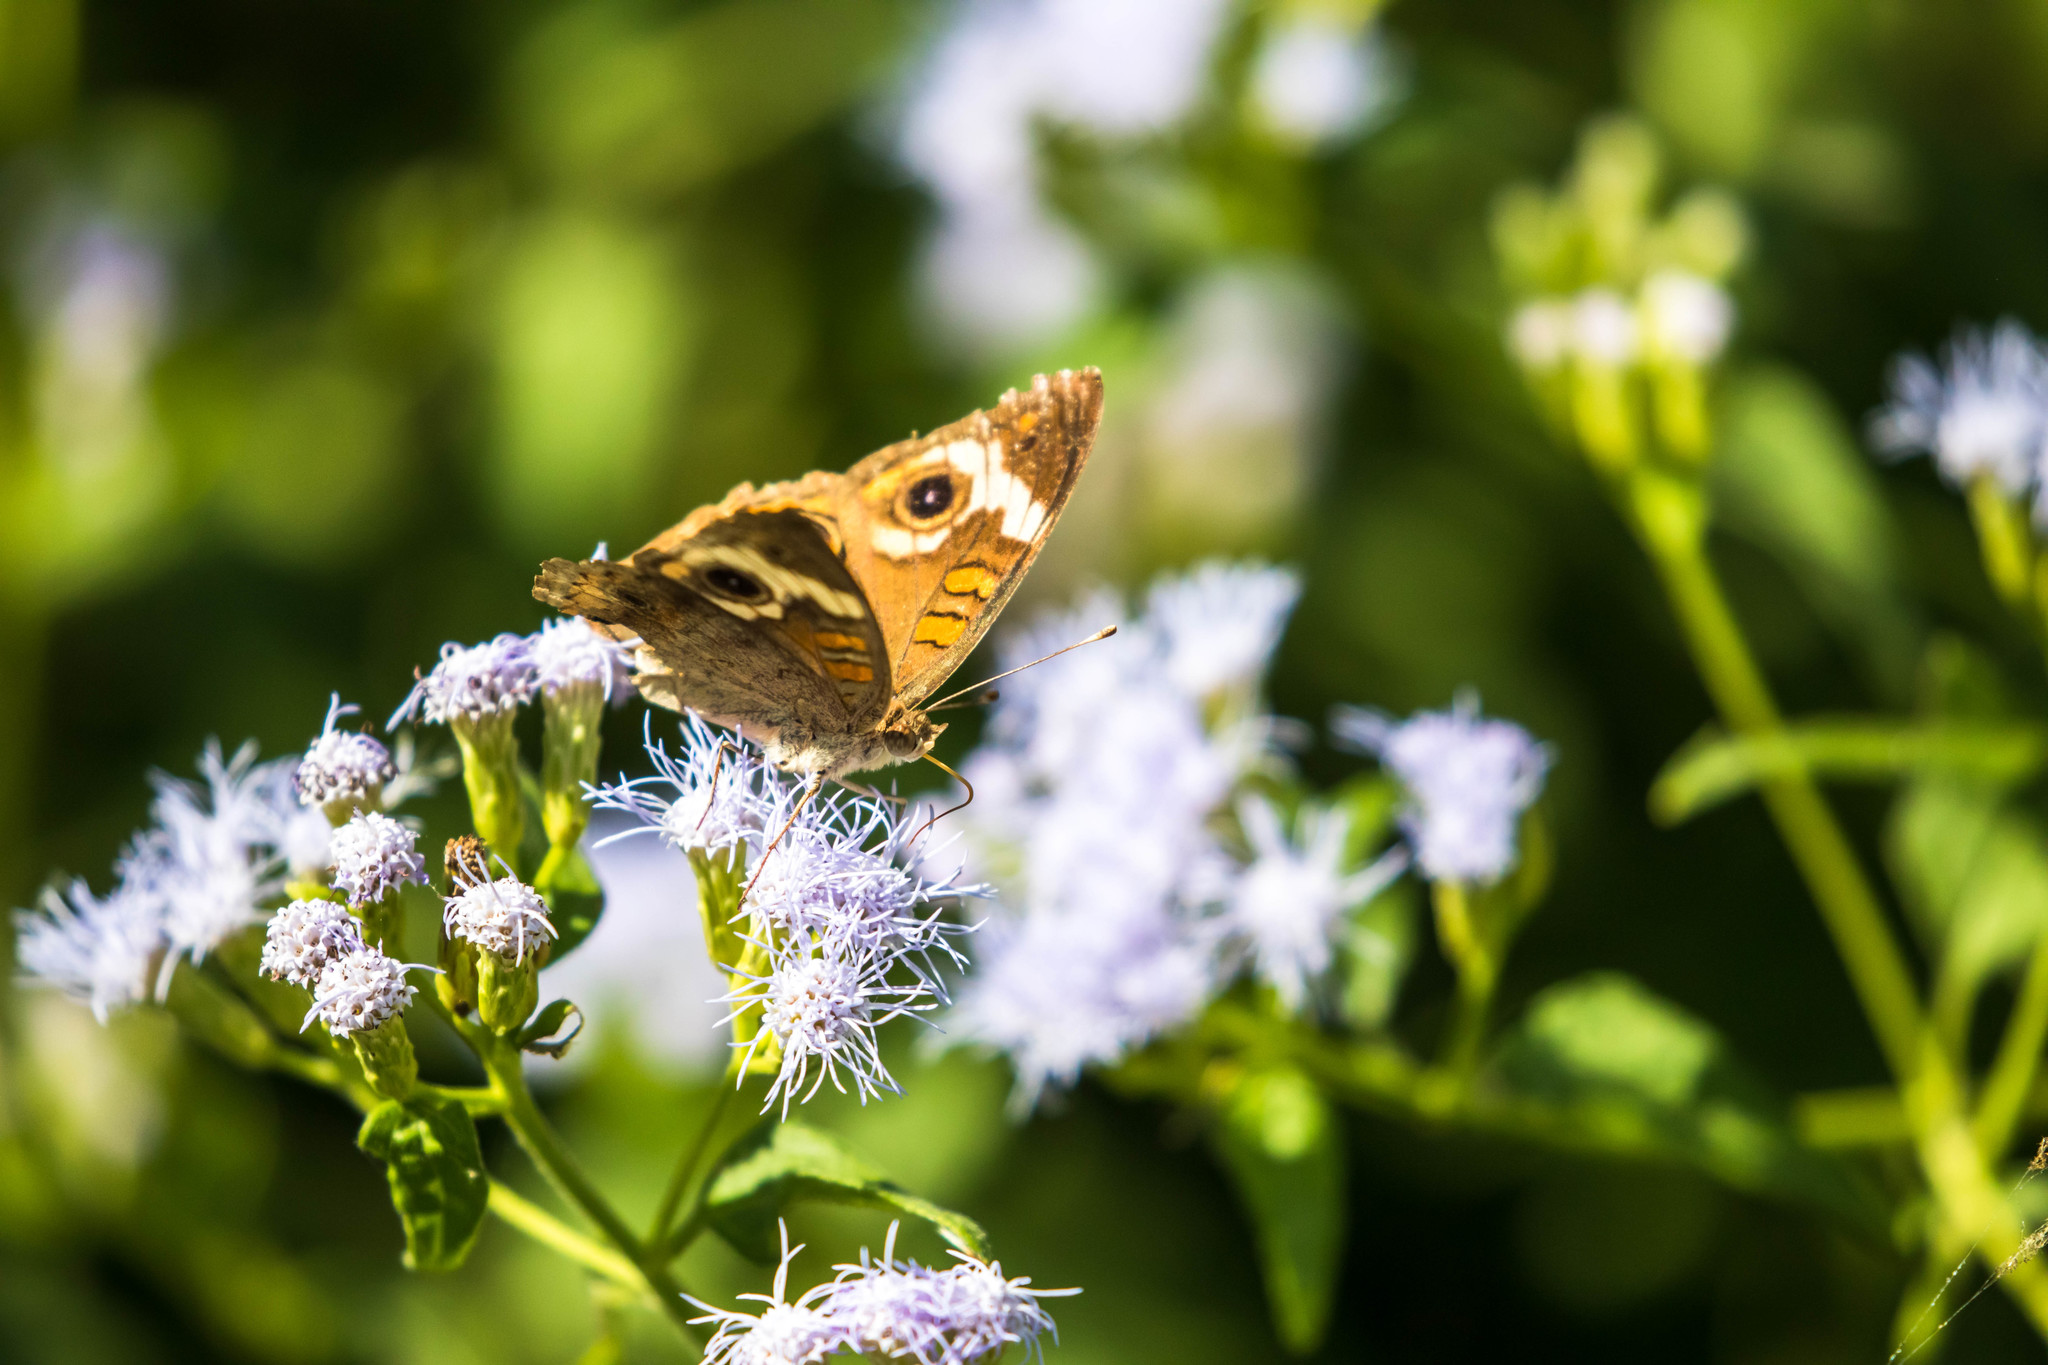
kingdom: Animalia
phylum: Arthropoda
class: Insecta
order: Lepidoptera
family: Nymphalidae
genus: Junonia
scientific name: Junonia coenia
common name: Common buckeye
